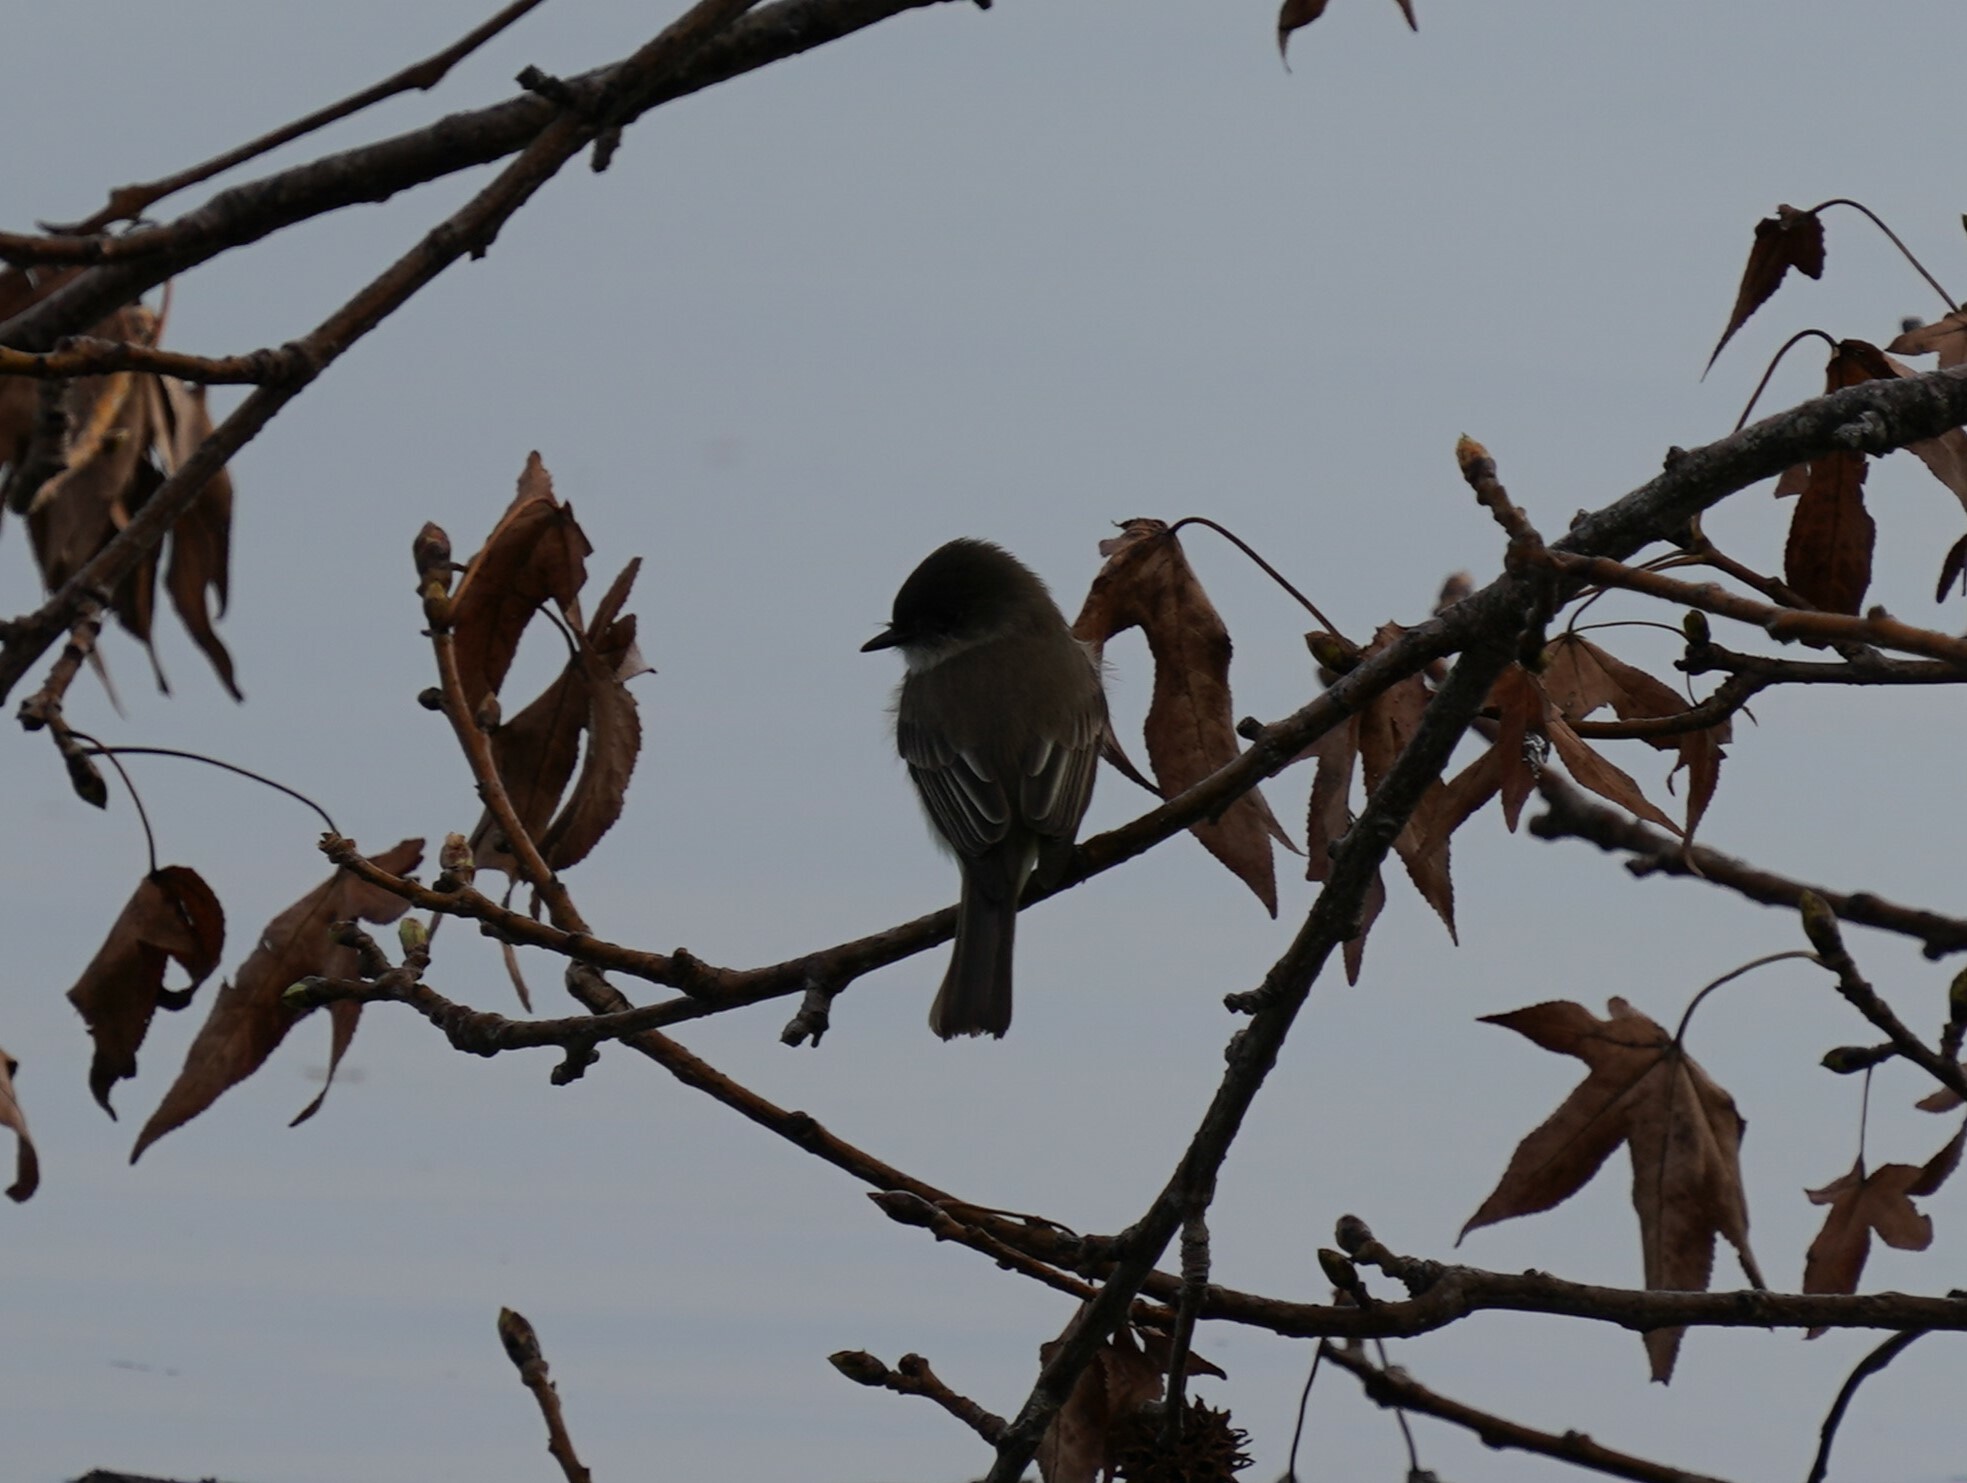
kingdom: Animalia
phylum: Chordata
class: Aves
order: Passeriformes
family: Tyrannidae
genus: Sayornis
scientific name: Sayornis phoebe
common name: Eastern phoebe
